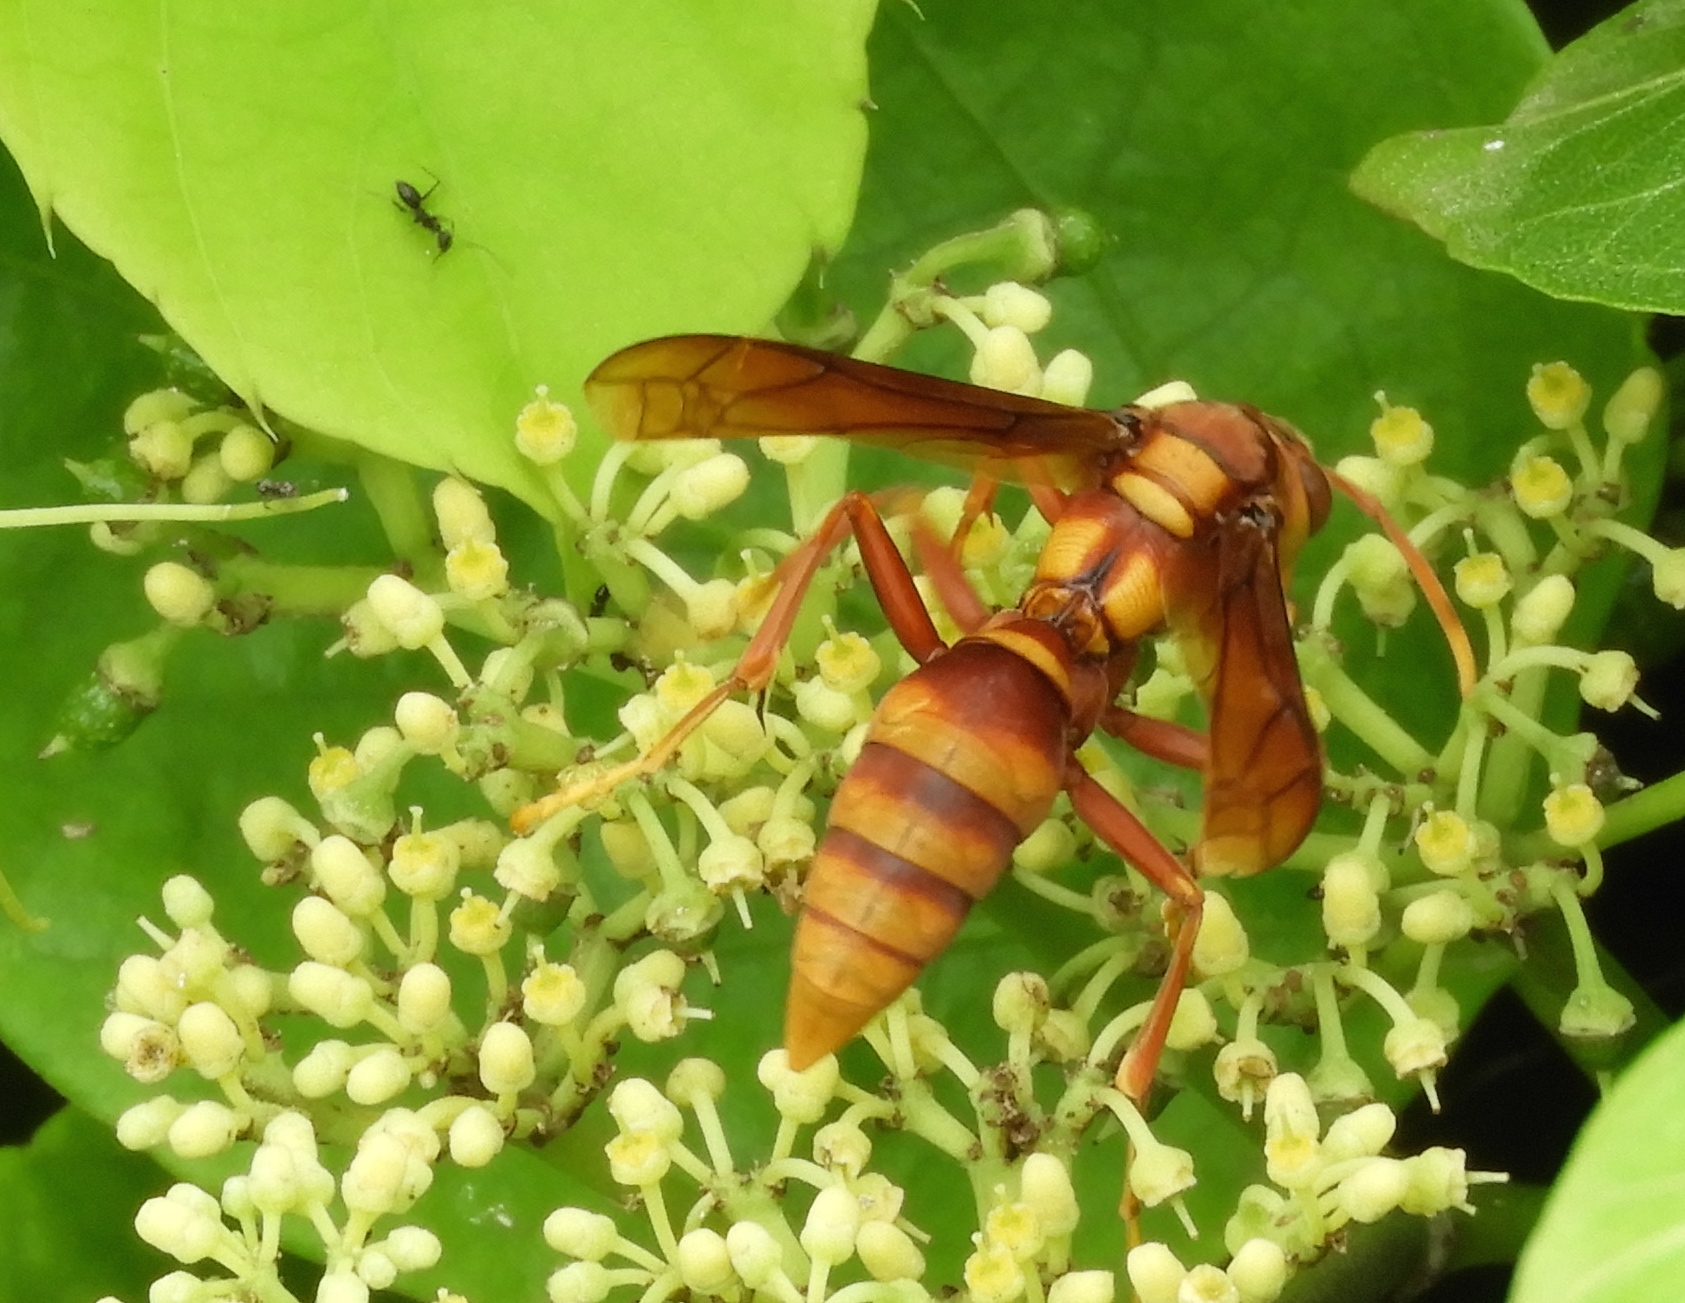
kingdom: Animalia
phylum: Arthropoda
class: Insecta
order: Hymenoptera
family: Eumenidae
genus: Polistes
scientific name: Polistes carnifex
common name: Paper wasp
